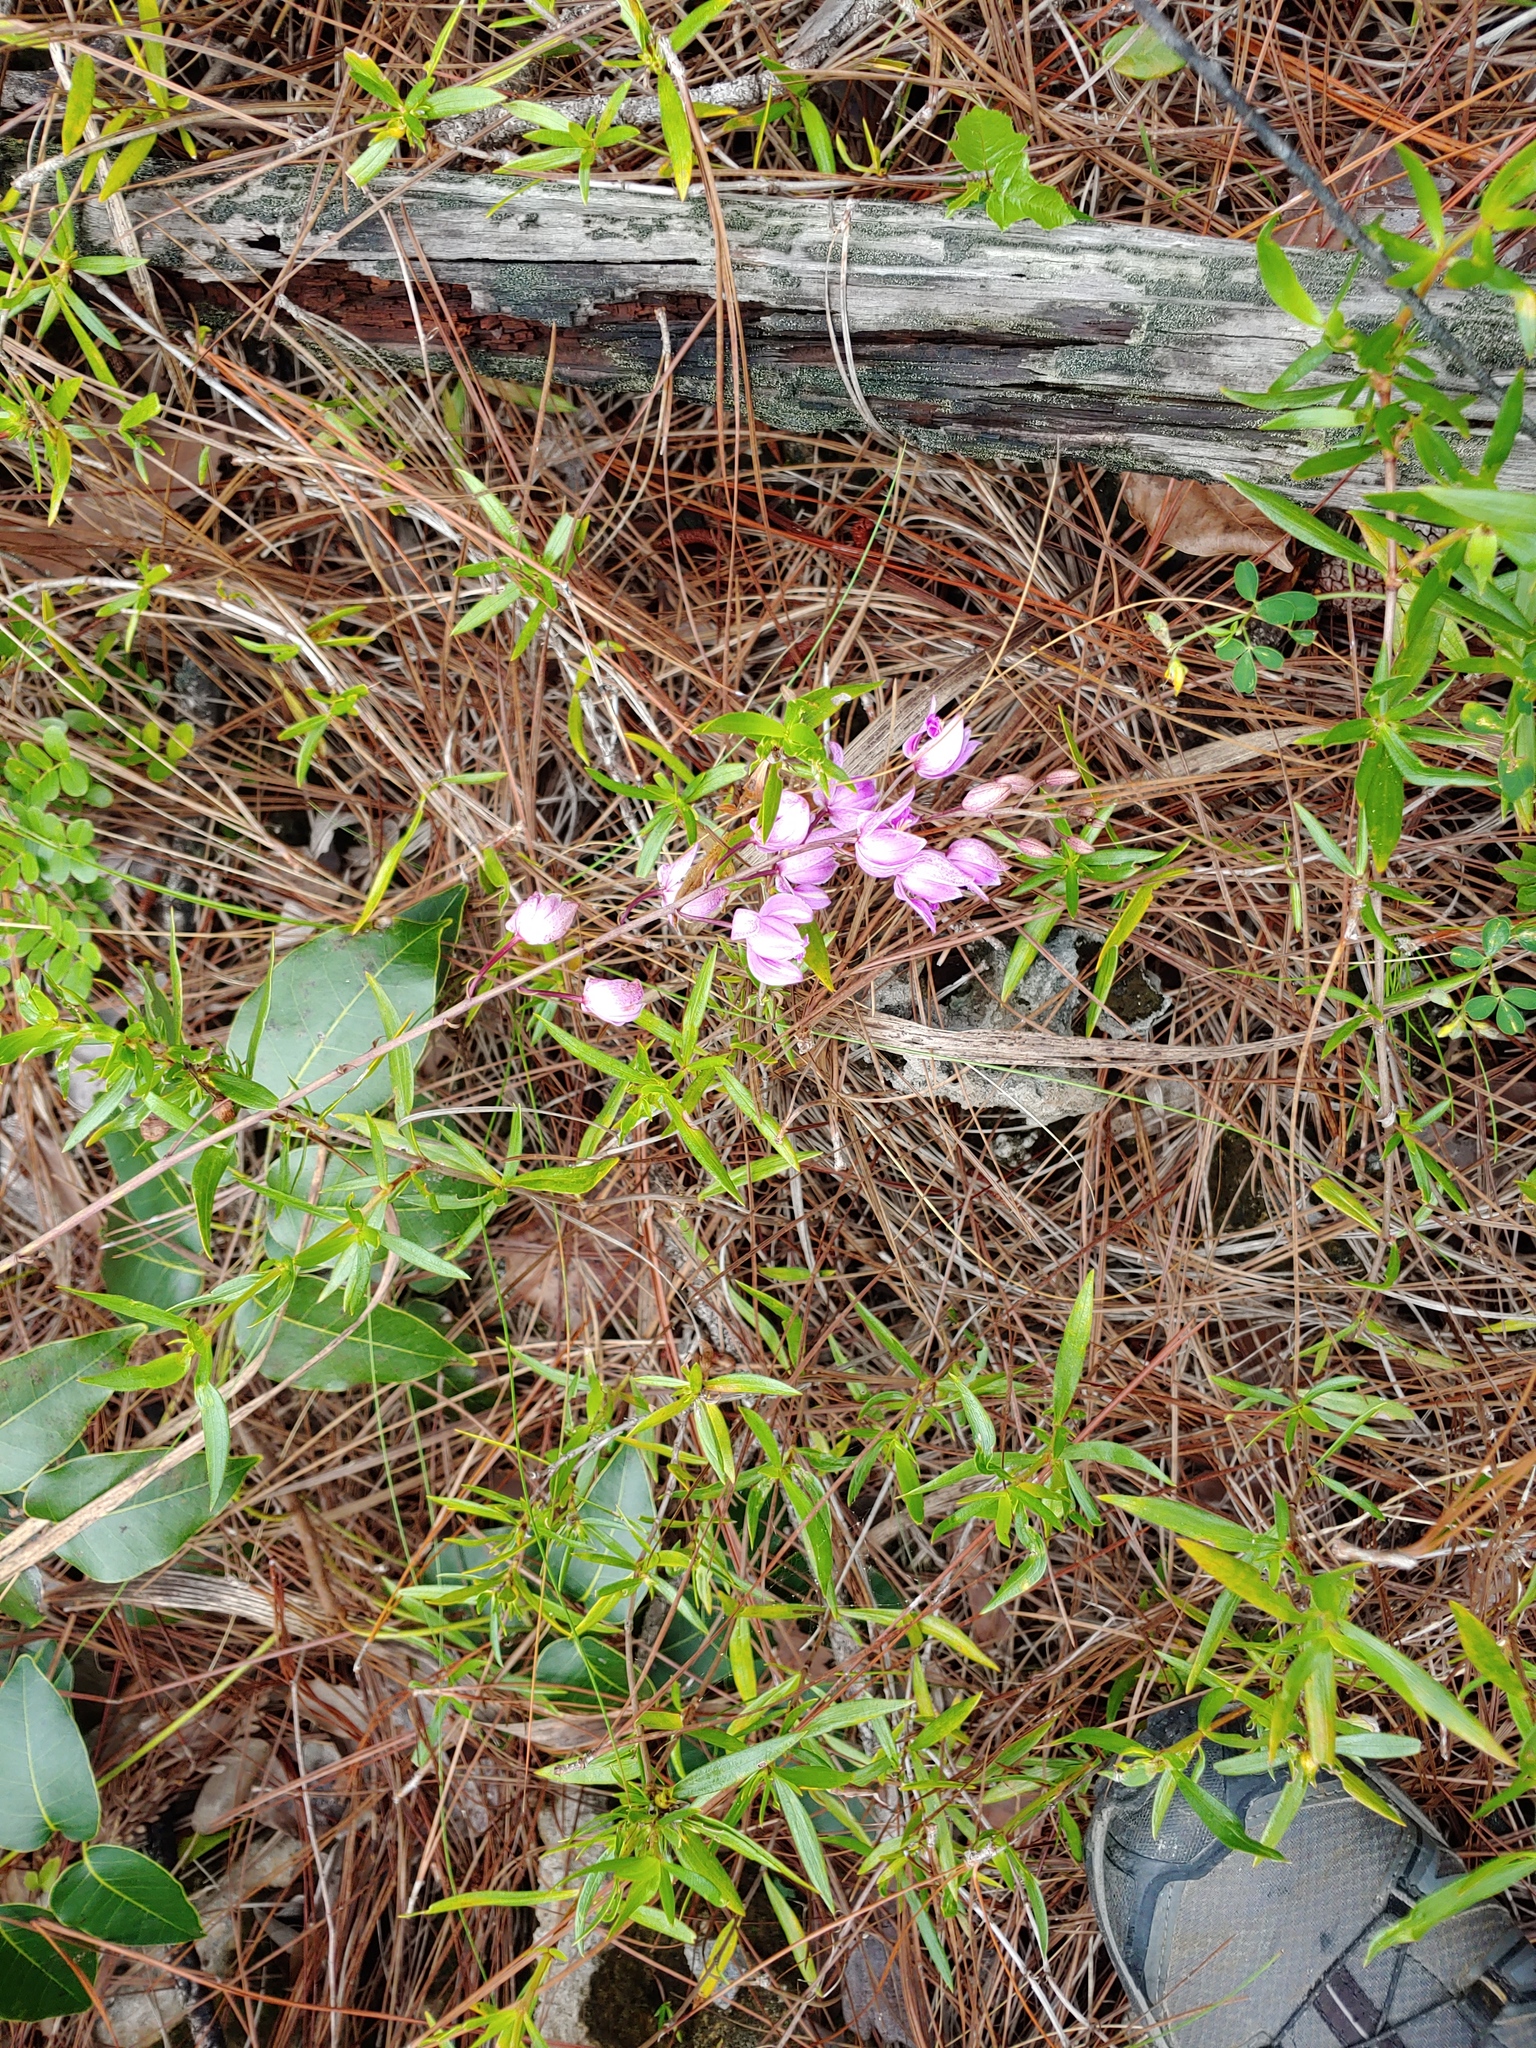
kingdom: Plantae
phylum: Tracheophyta
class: Liliopsida
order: Asparagales
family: Orchidaceae
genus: Bletia
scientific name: Bletia purpurea
